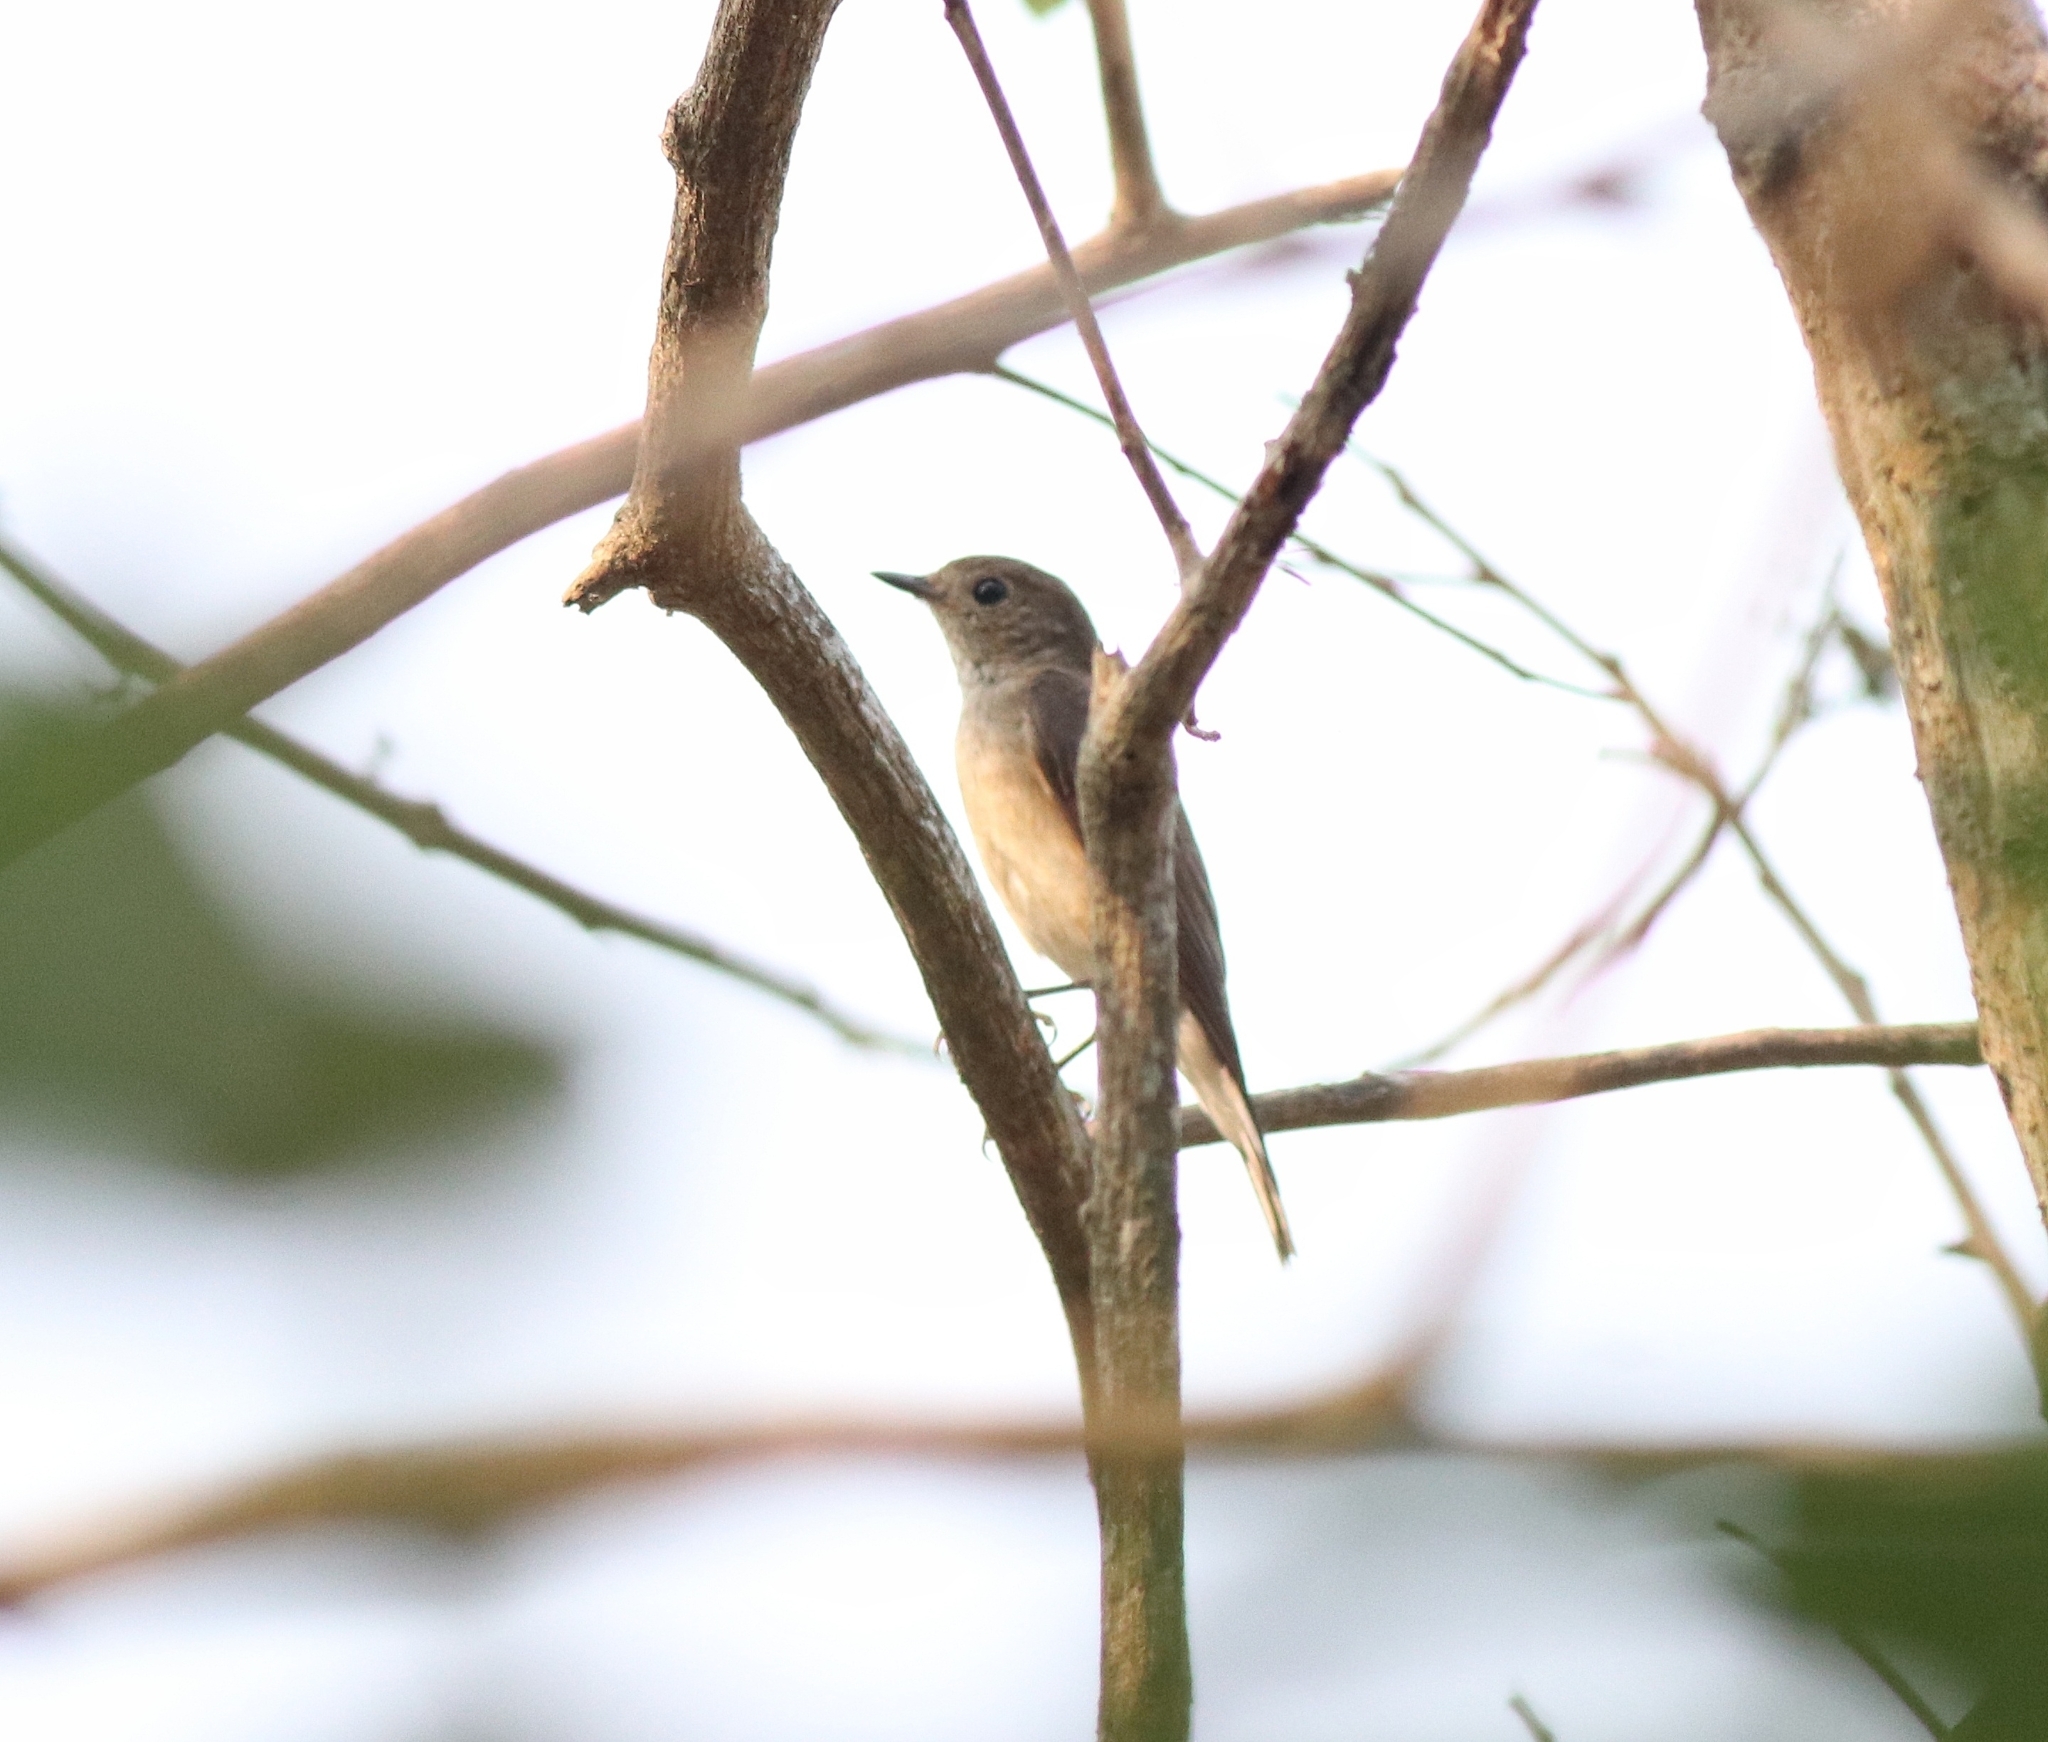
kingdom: Animalia
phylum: Chordata
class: Aves
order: Passeriformes
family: Muscicapidae
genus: Ficedula
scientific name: Ficedula albicilla
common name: Taiga flycatcher
